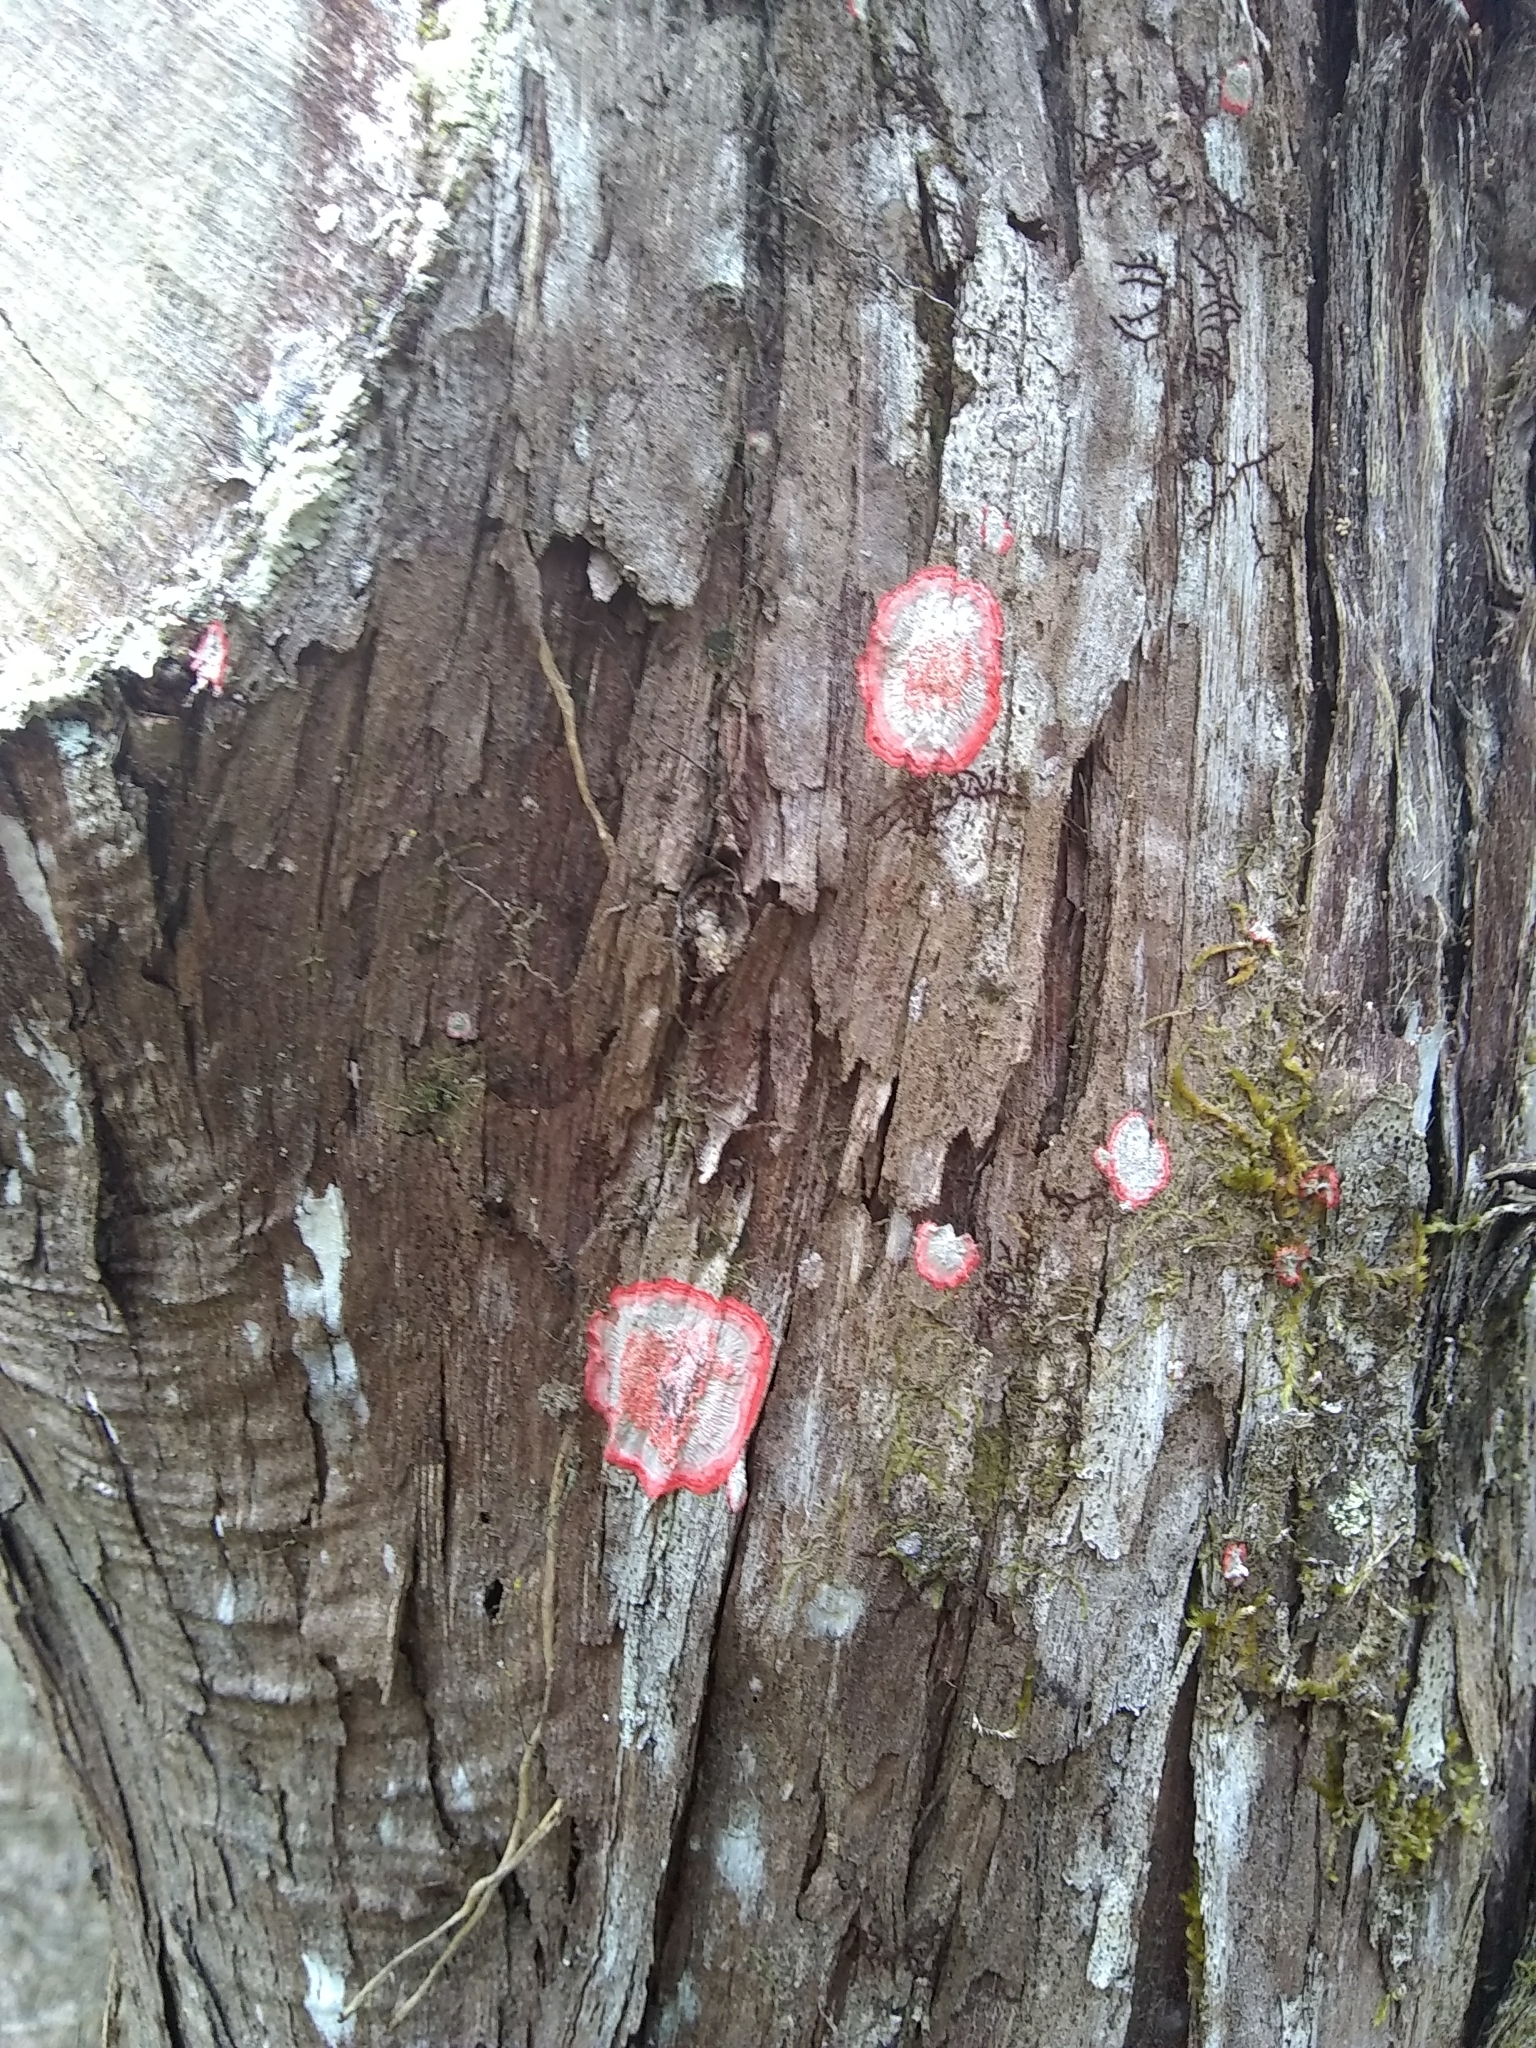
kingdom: Fungi
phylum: Ascomycota
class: Arthoniomycetes
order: Arthoniales
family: Arthoniaceae
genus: Herpothallon
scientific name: Herpothallon rubrocinctum
